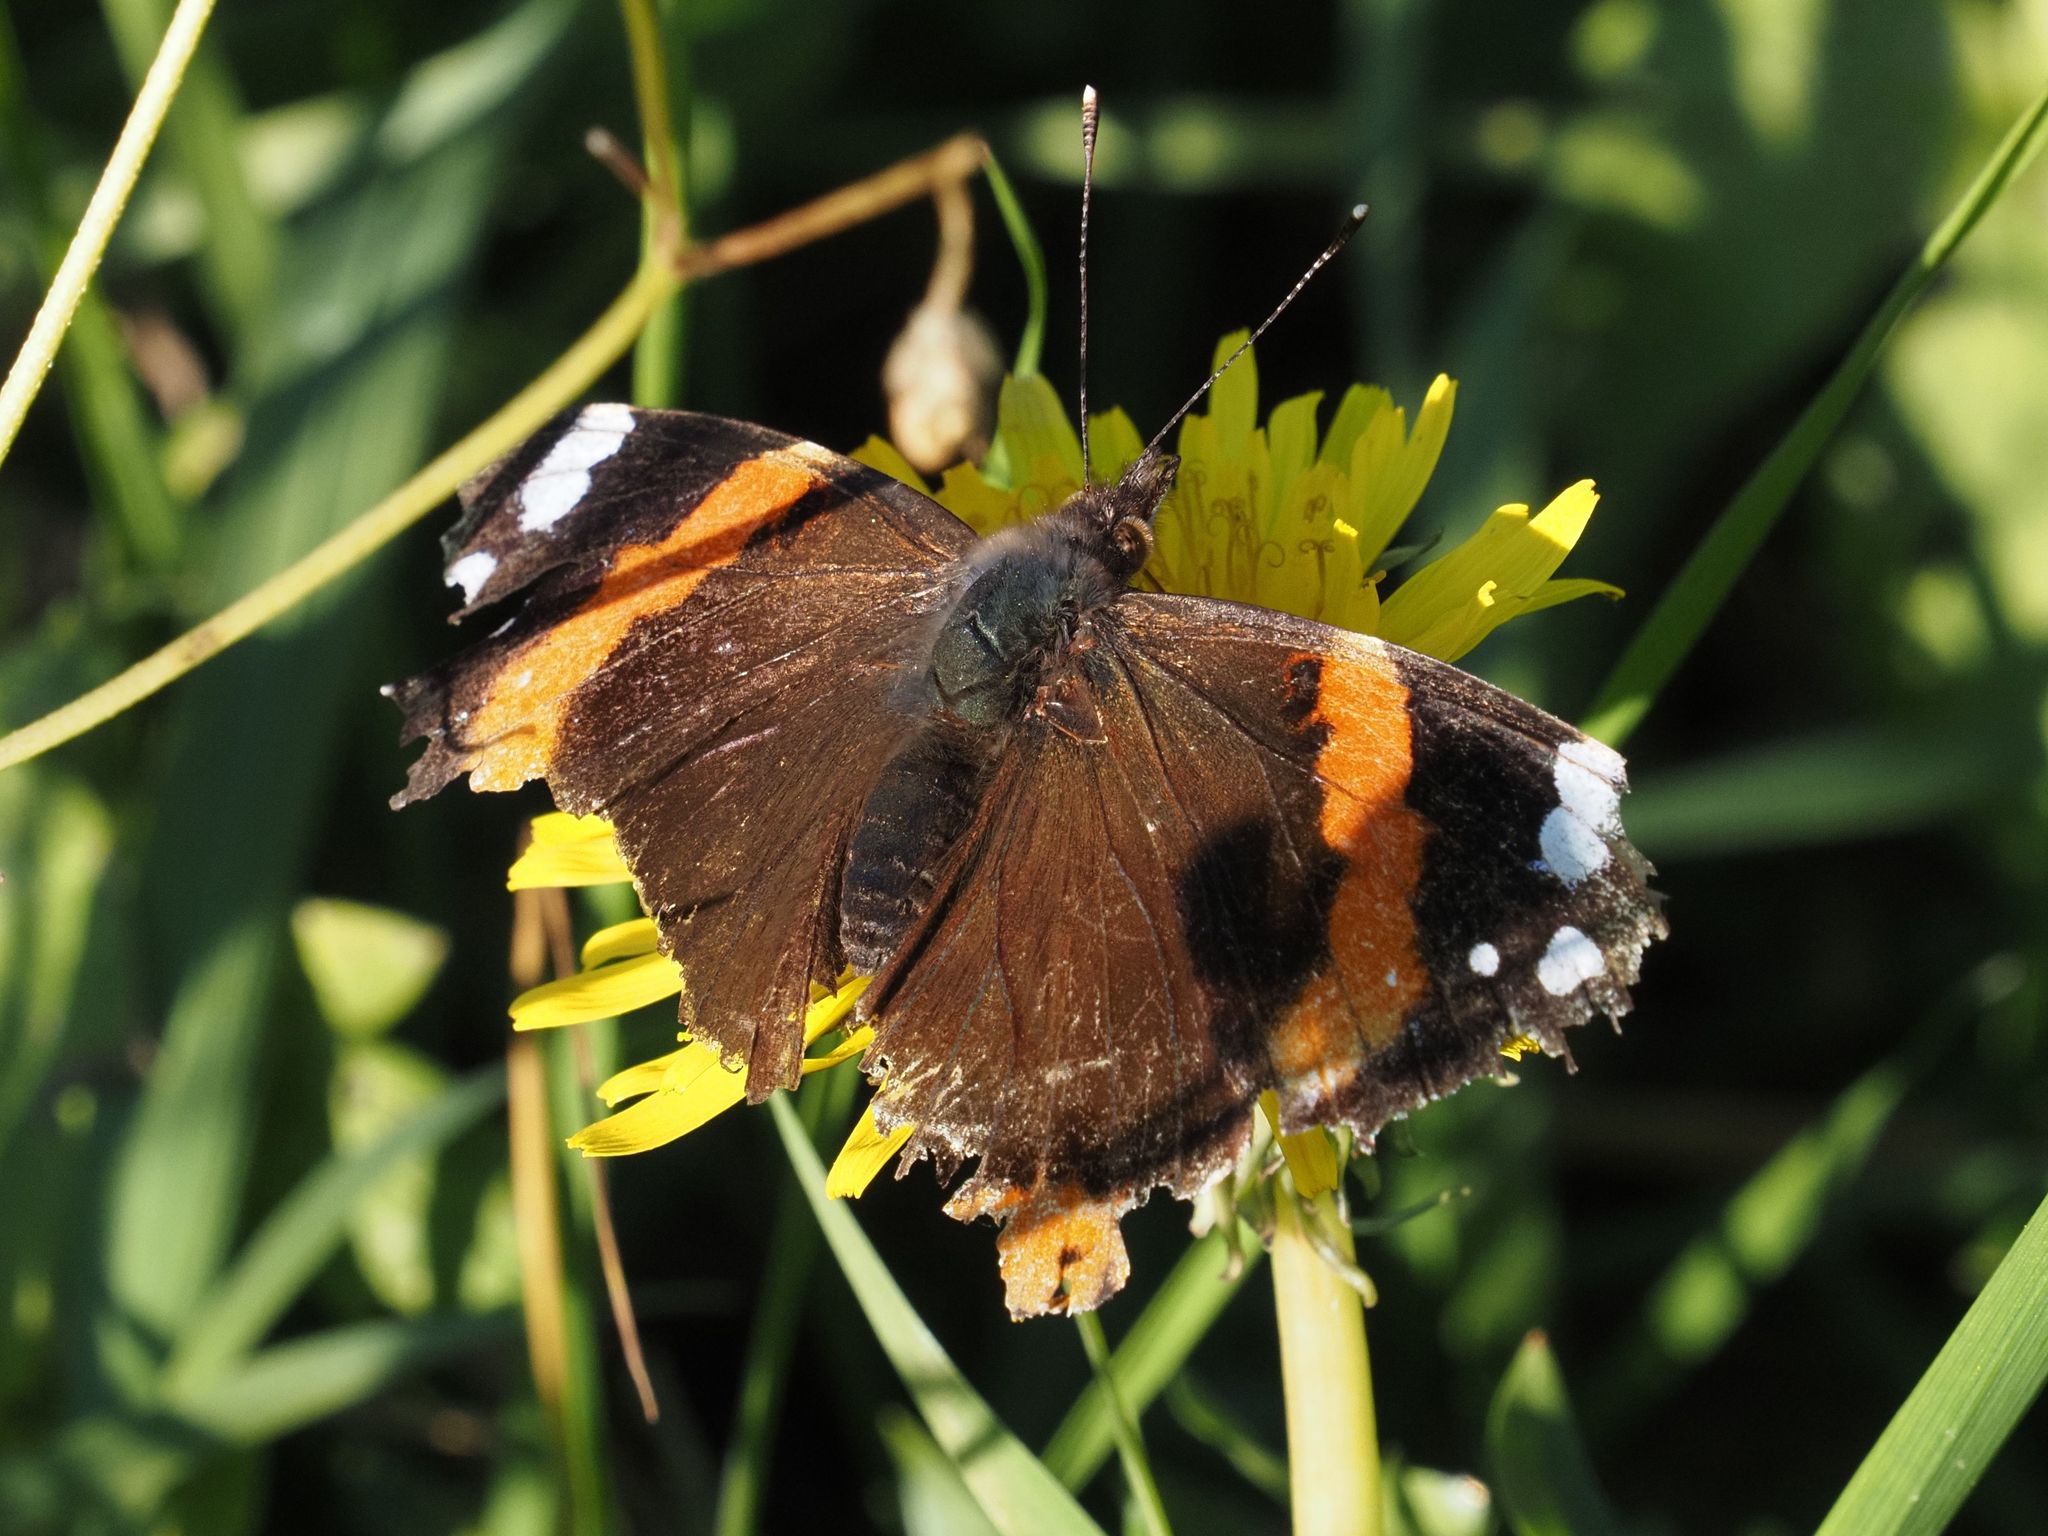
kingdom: Animalia
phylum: Arthropoda
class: Insecta
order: Lepidoptera
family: Nymphalidae
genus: Vanessa
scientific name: Vanessa atalanta
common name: Red admiral
